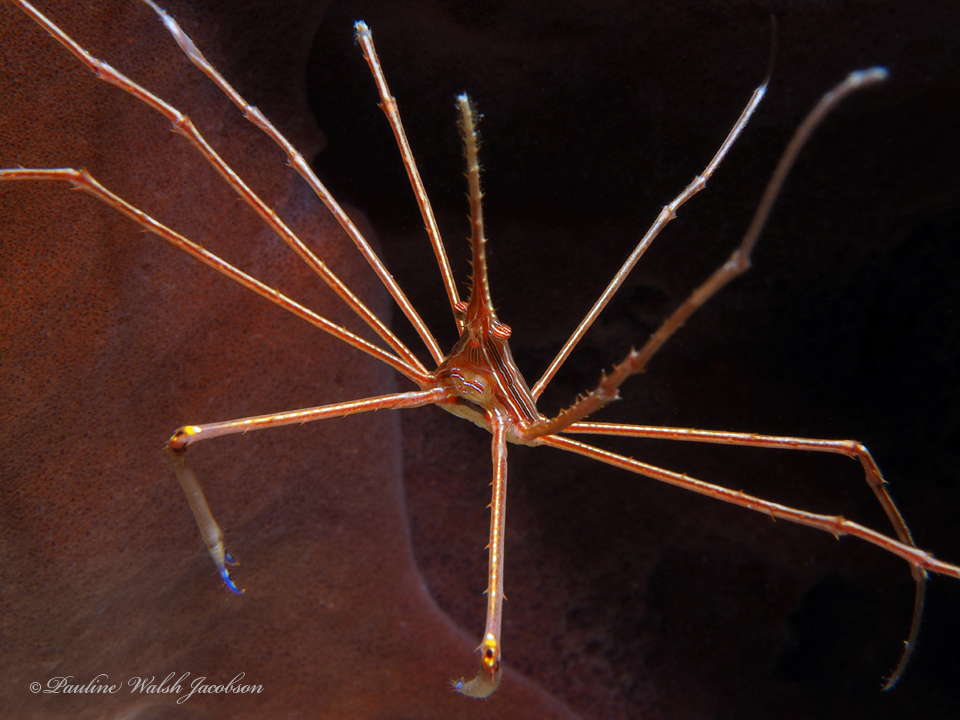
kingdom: Animalia
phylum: Arthropoda
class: Malacostraca
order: Decapoda
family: Inachoididae
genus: Stenorhynchus
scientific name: Stenorhynchus seticornis
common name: Arrow crab
